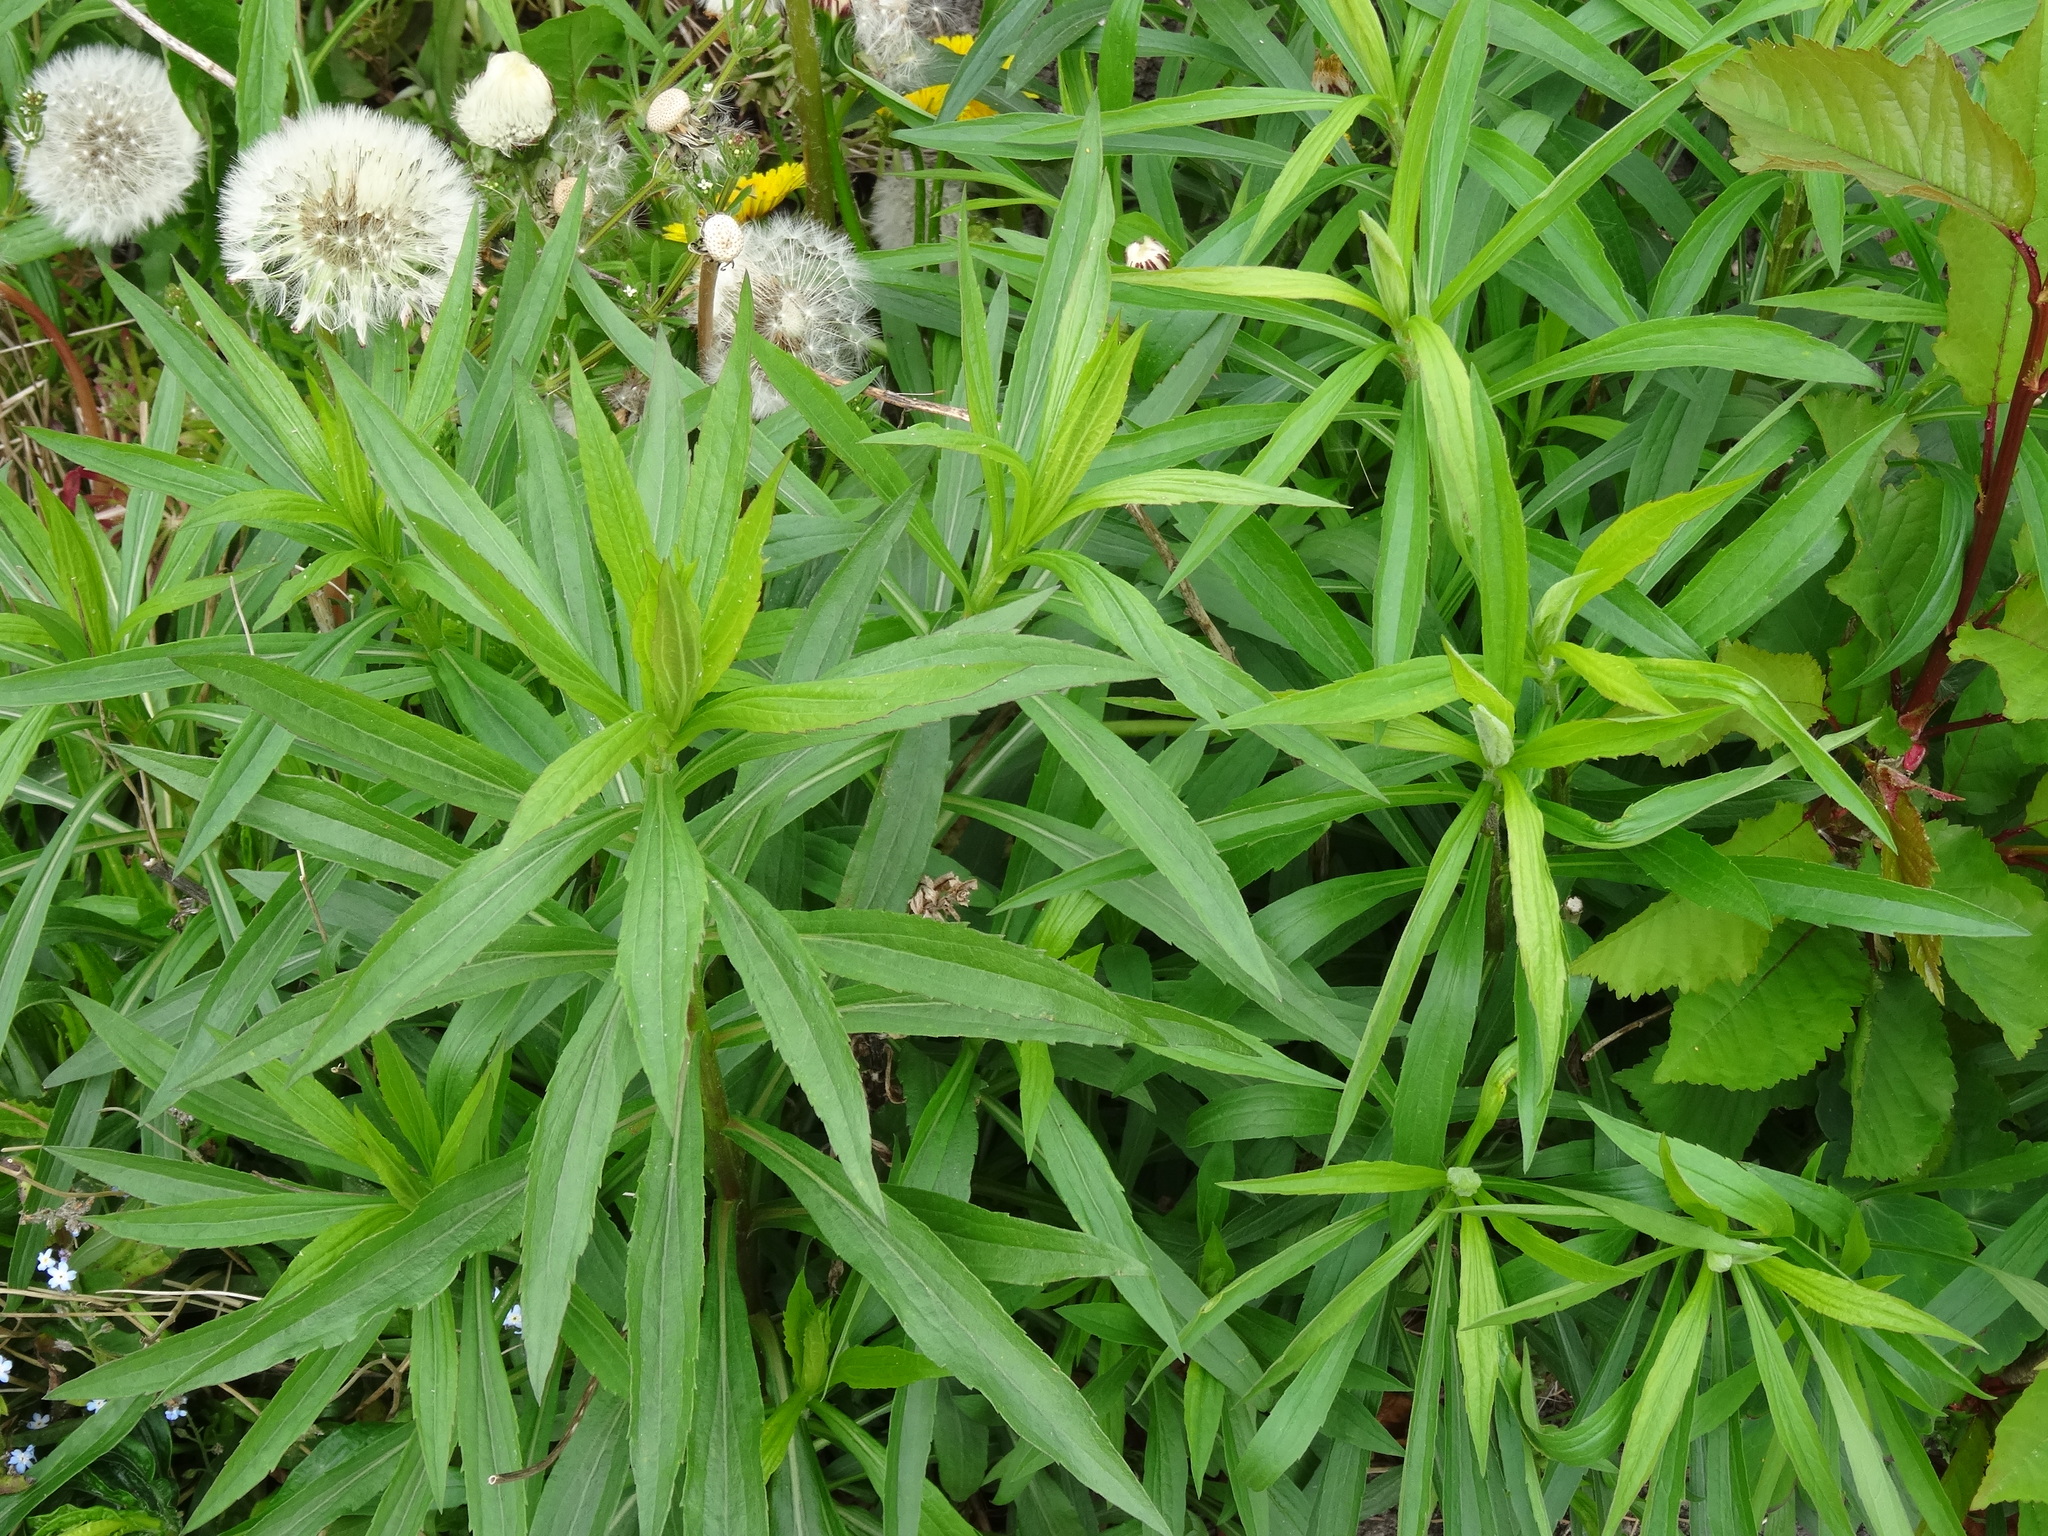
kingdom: Plantae
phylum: Tracheophyta
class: Magnoliopsida
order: Asterales
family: Asteraceae
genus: Solidago
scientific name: Solidago canadensis
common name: Canada goldenrod
